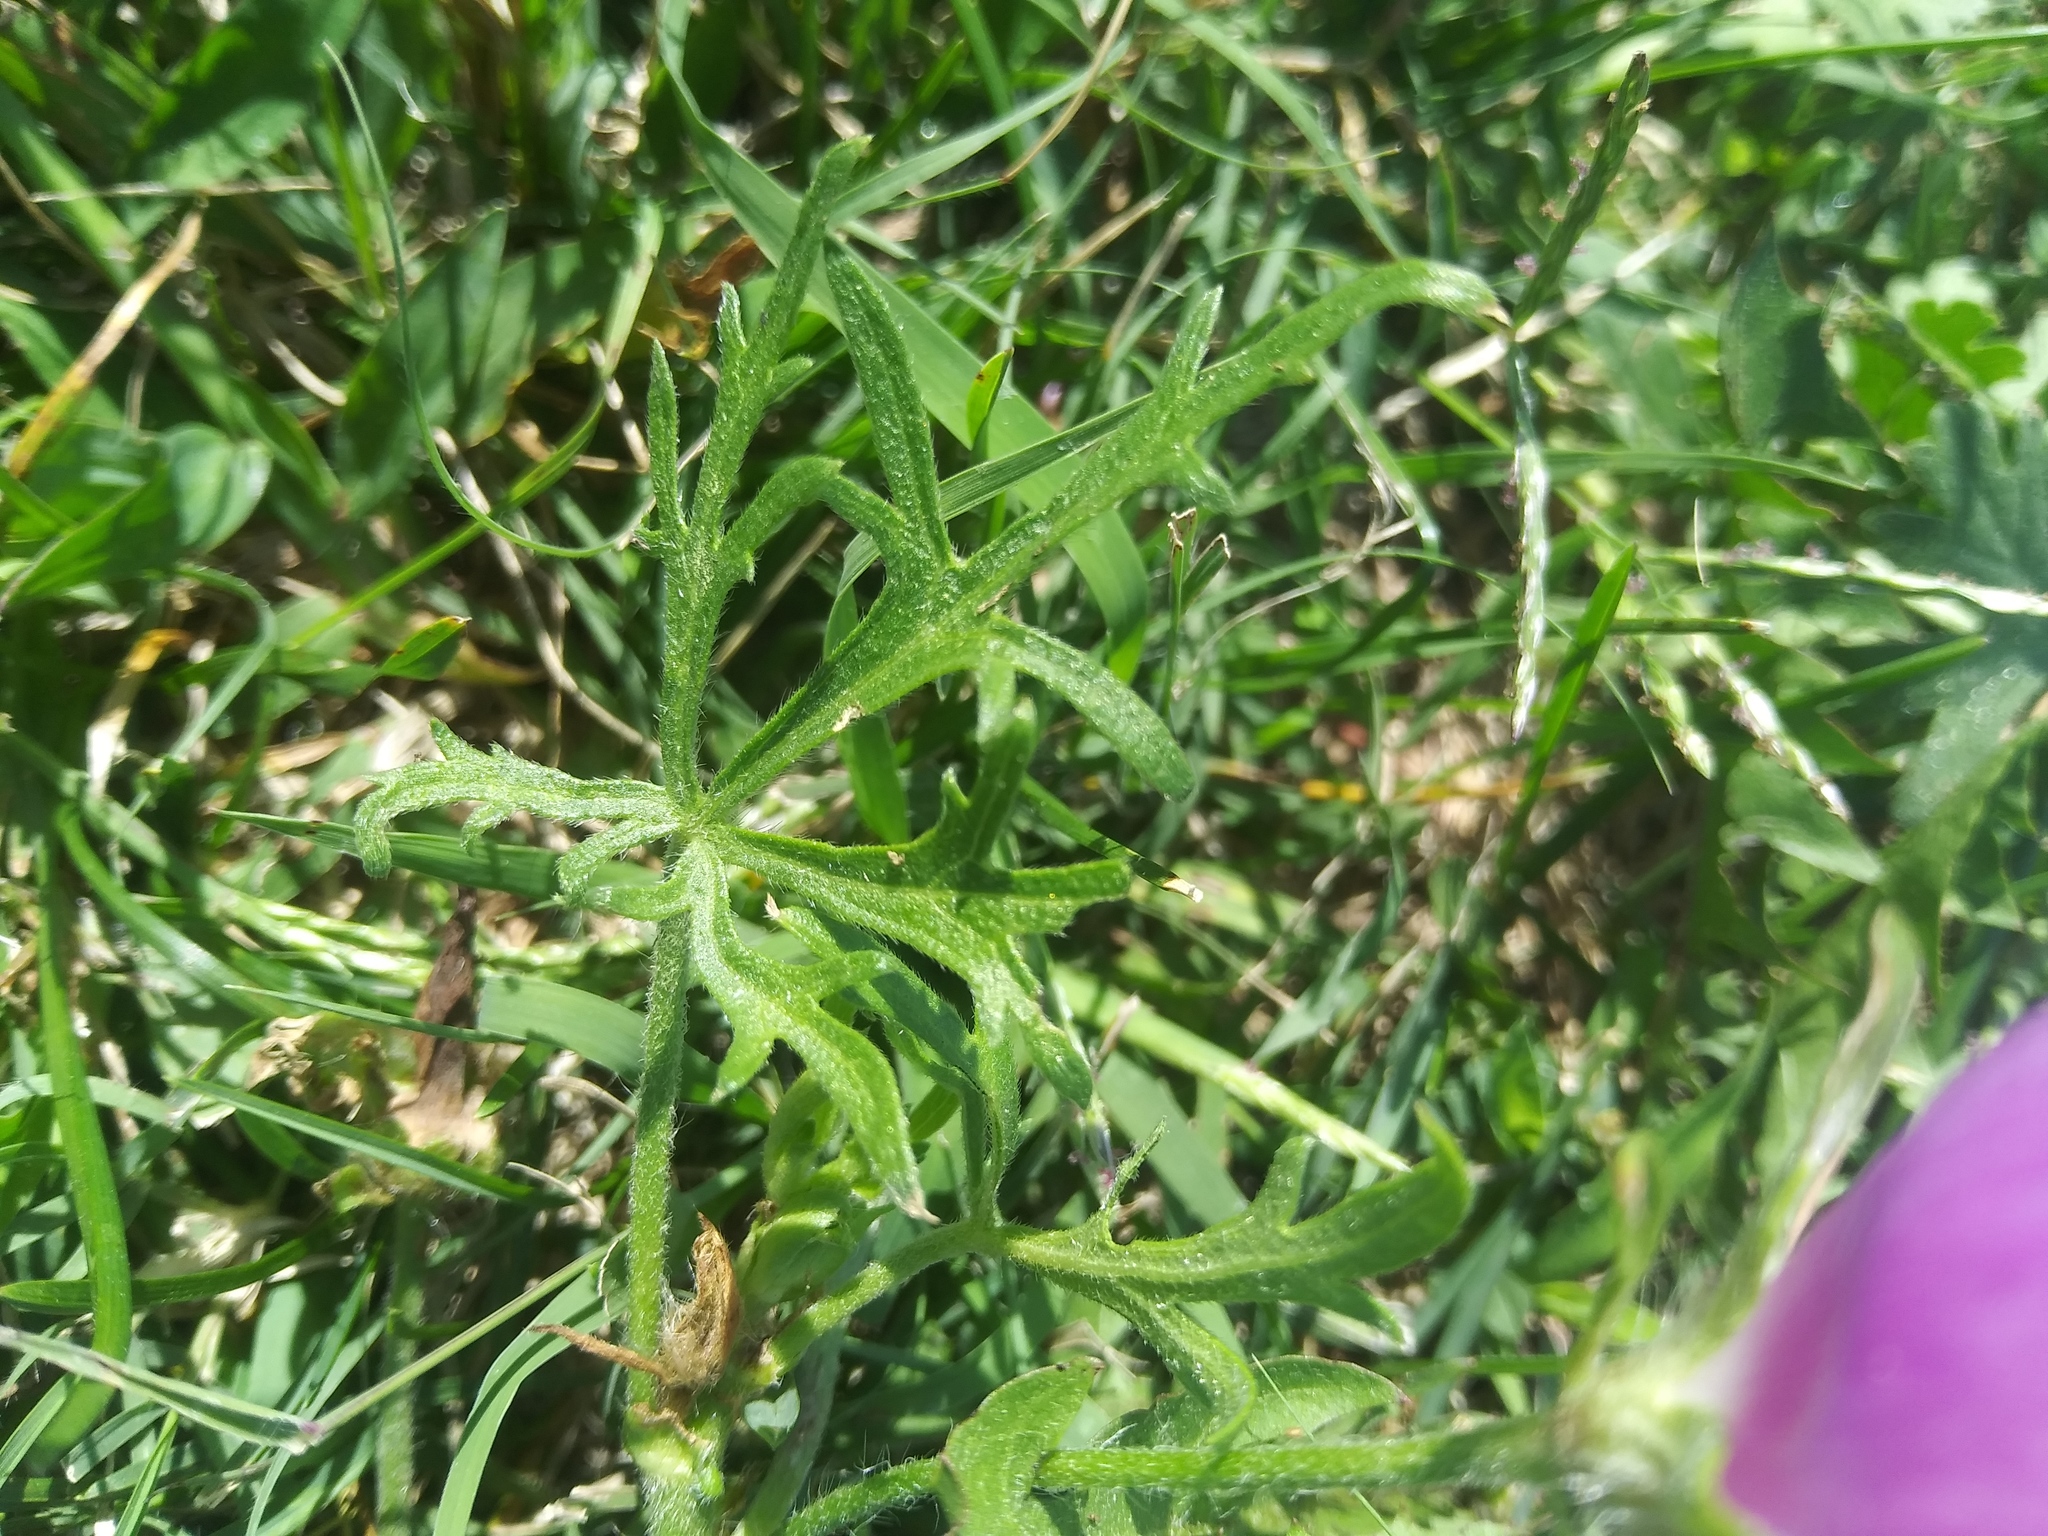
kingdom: Plantae
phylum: Tracheophyta
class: Magnoliopsida
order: Malvales
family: Malvaceae
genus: Callirhoe
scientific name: Callirhoe involucrata
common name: Purple poppy-mallow
